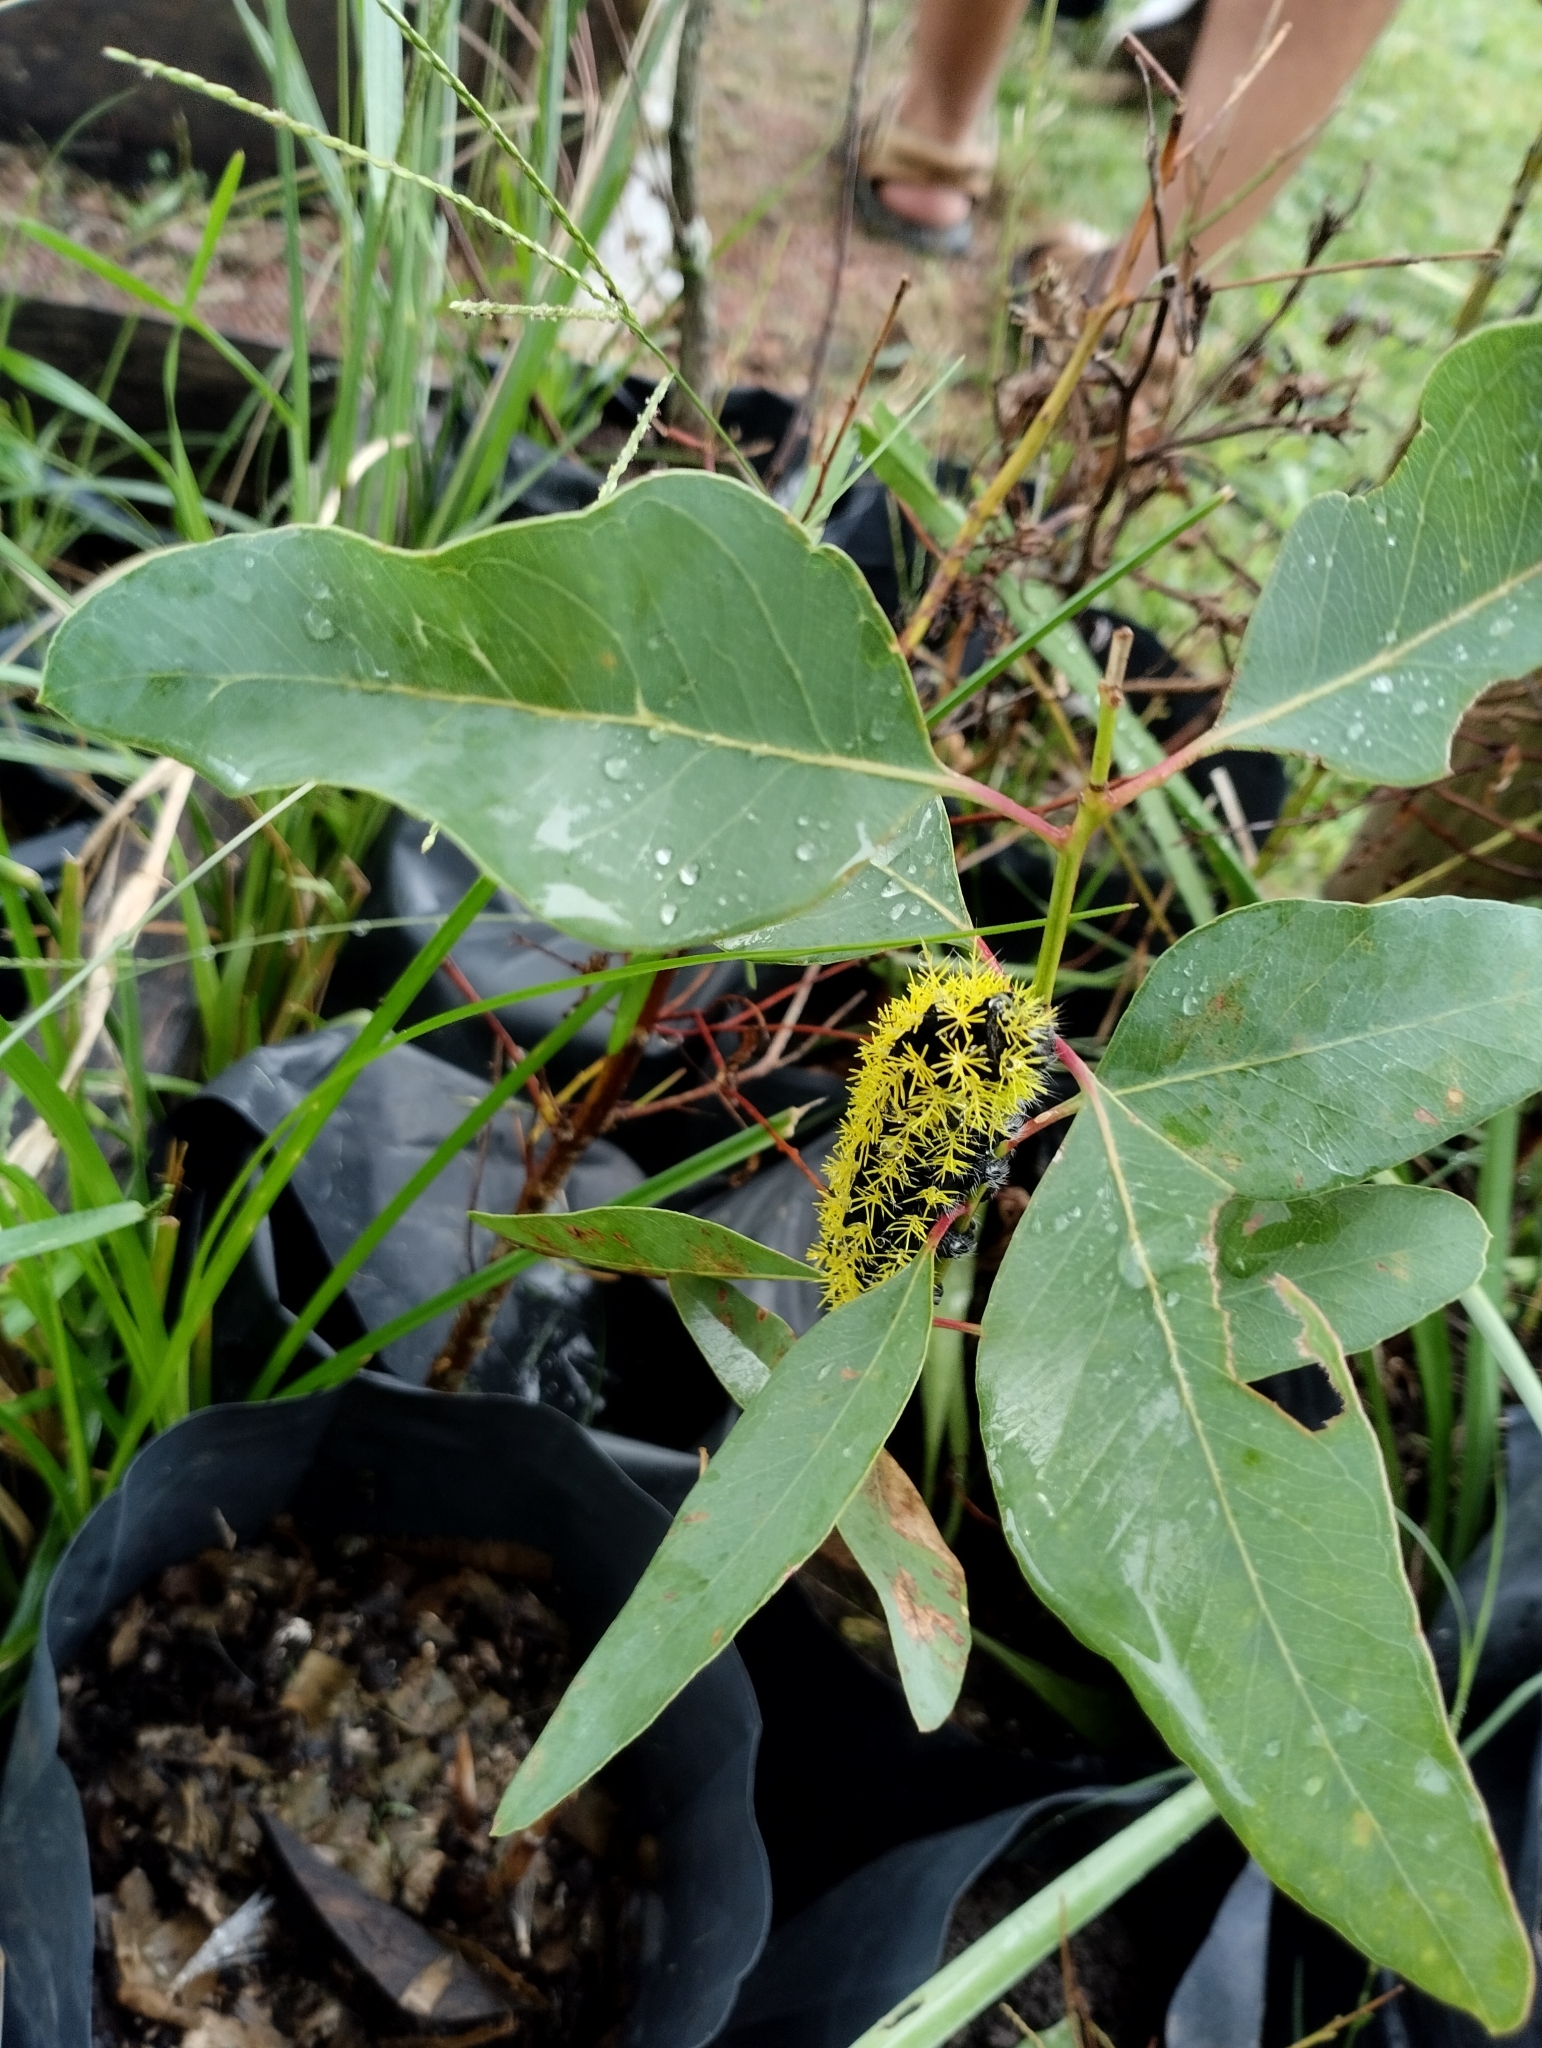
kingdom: Animalia
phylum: Arthropoda
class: Insecta
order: Lepidoptera
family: Saturniidae
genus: Leucanella
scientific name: Leucanella viridescens
